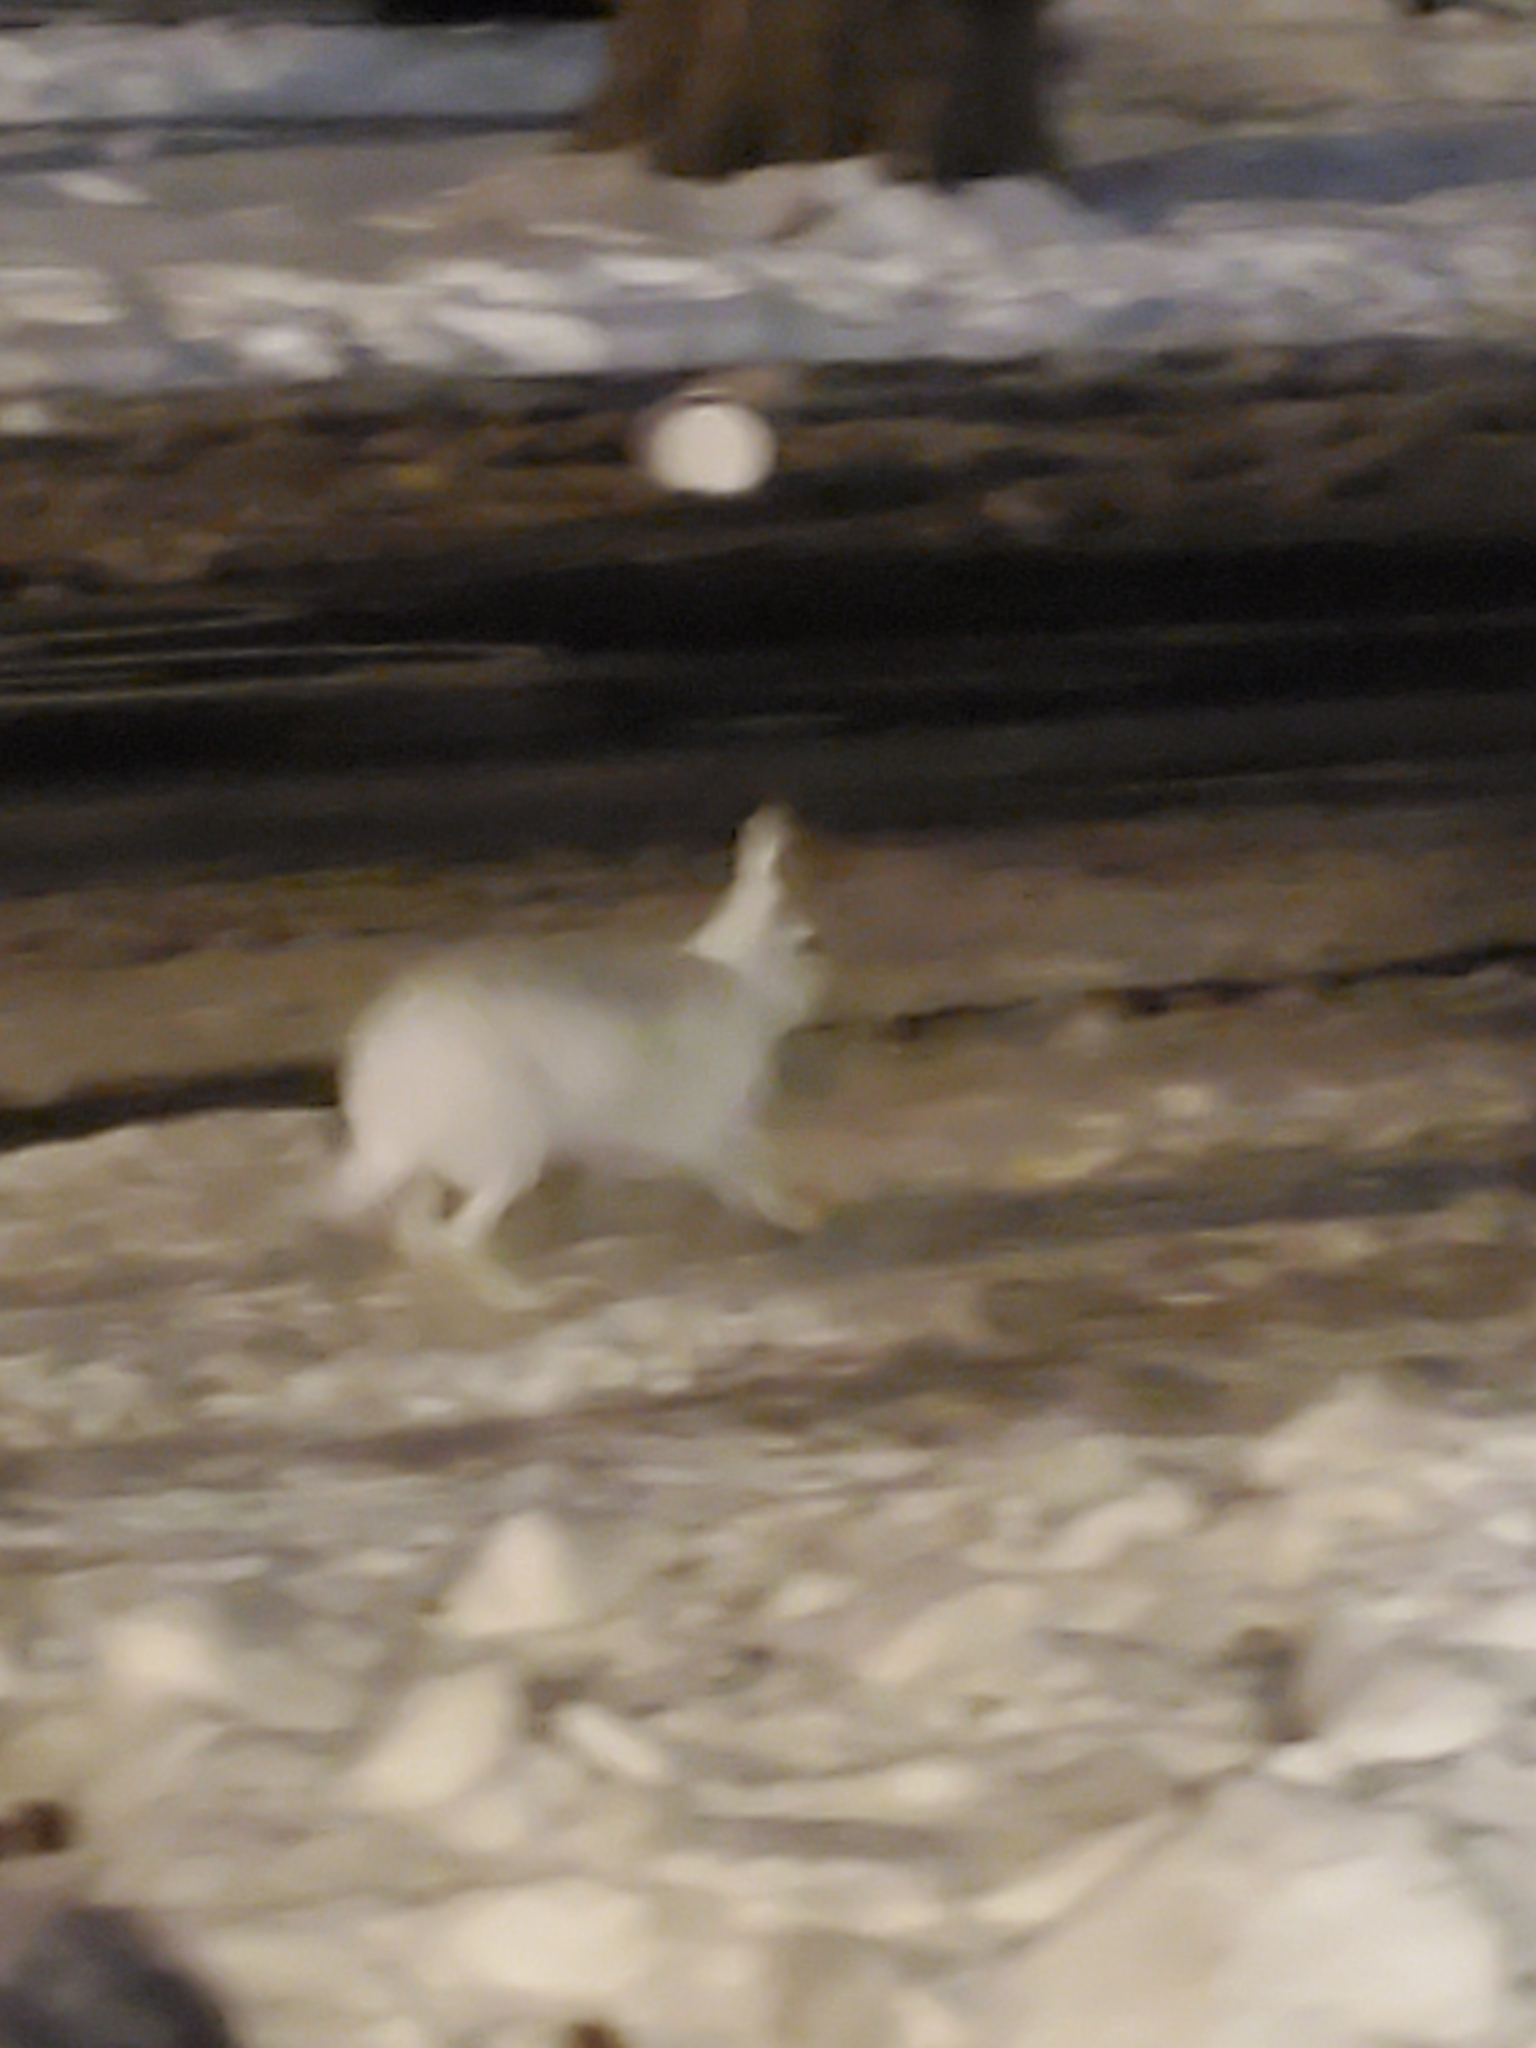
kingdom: Animalia
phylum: Chordata
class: Mammalia
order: Lagomorpha
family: Leporidae
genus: Lepus
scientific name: Lepus townsendii
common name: White-tailed jackrabbit
